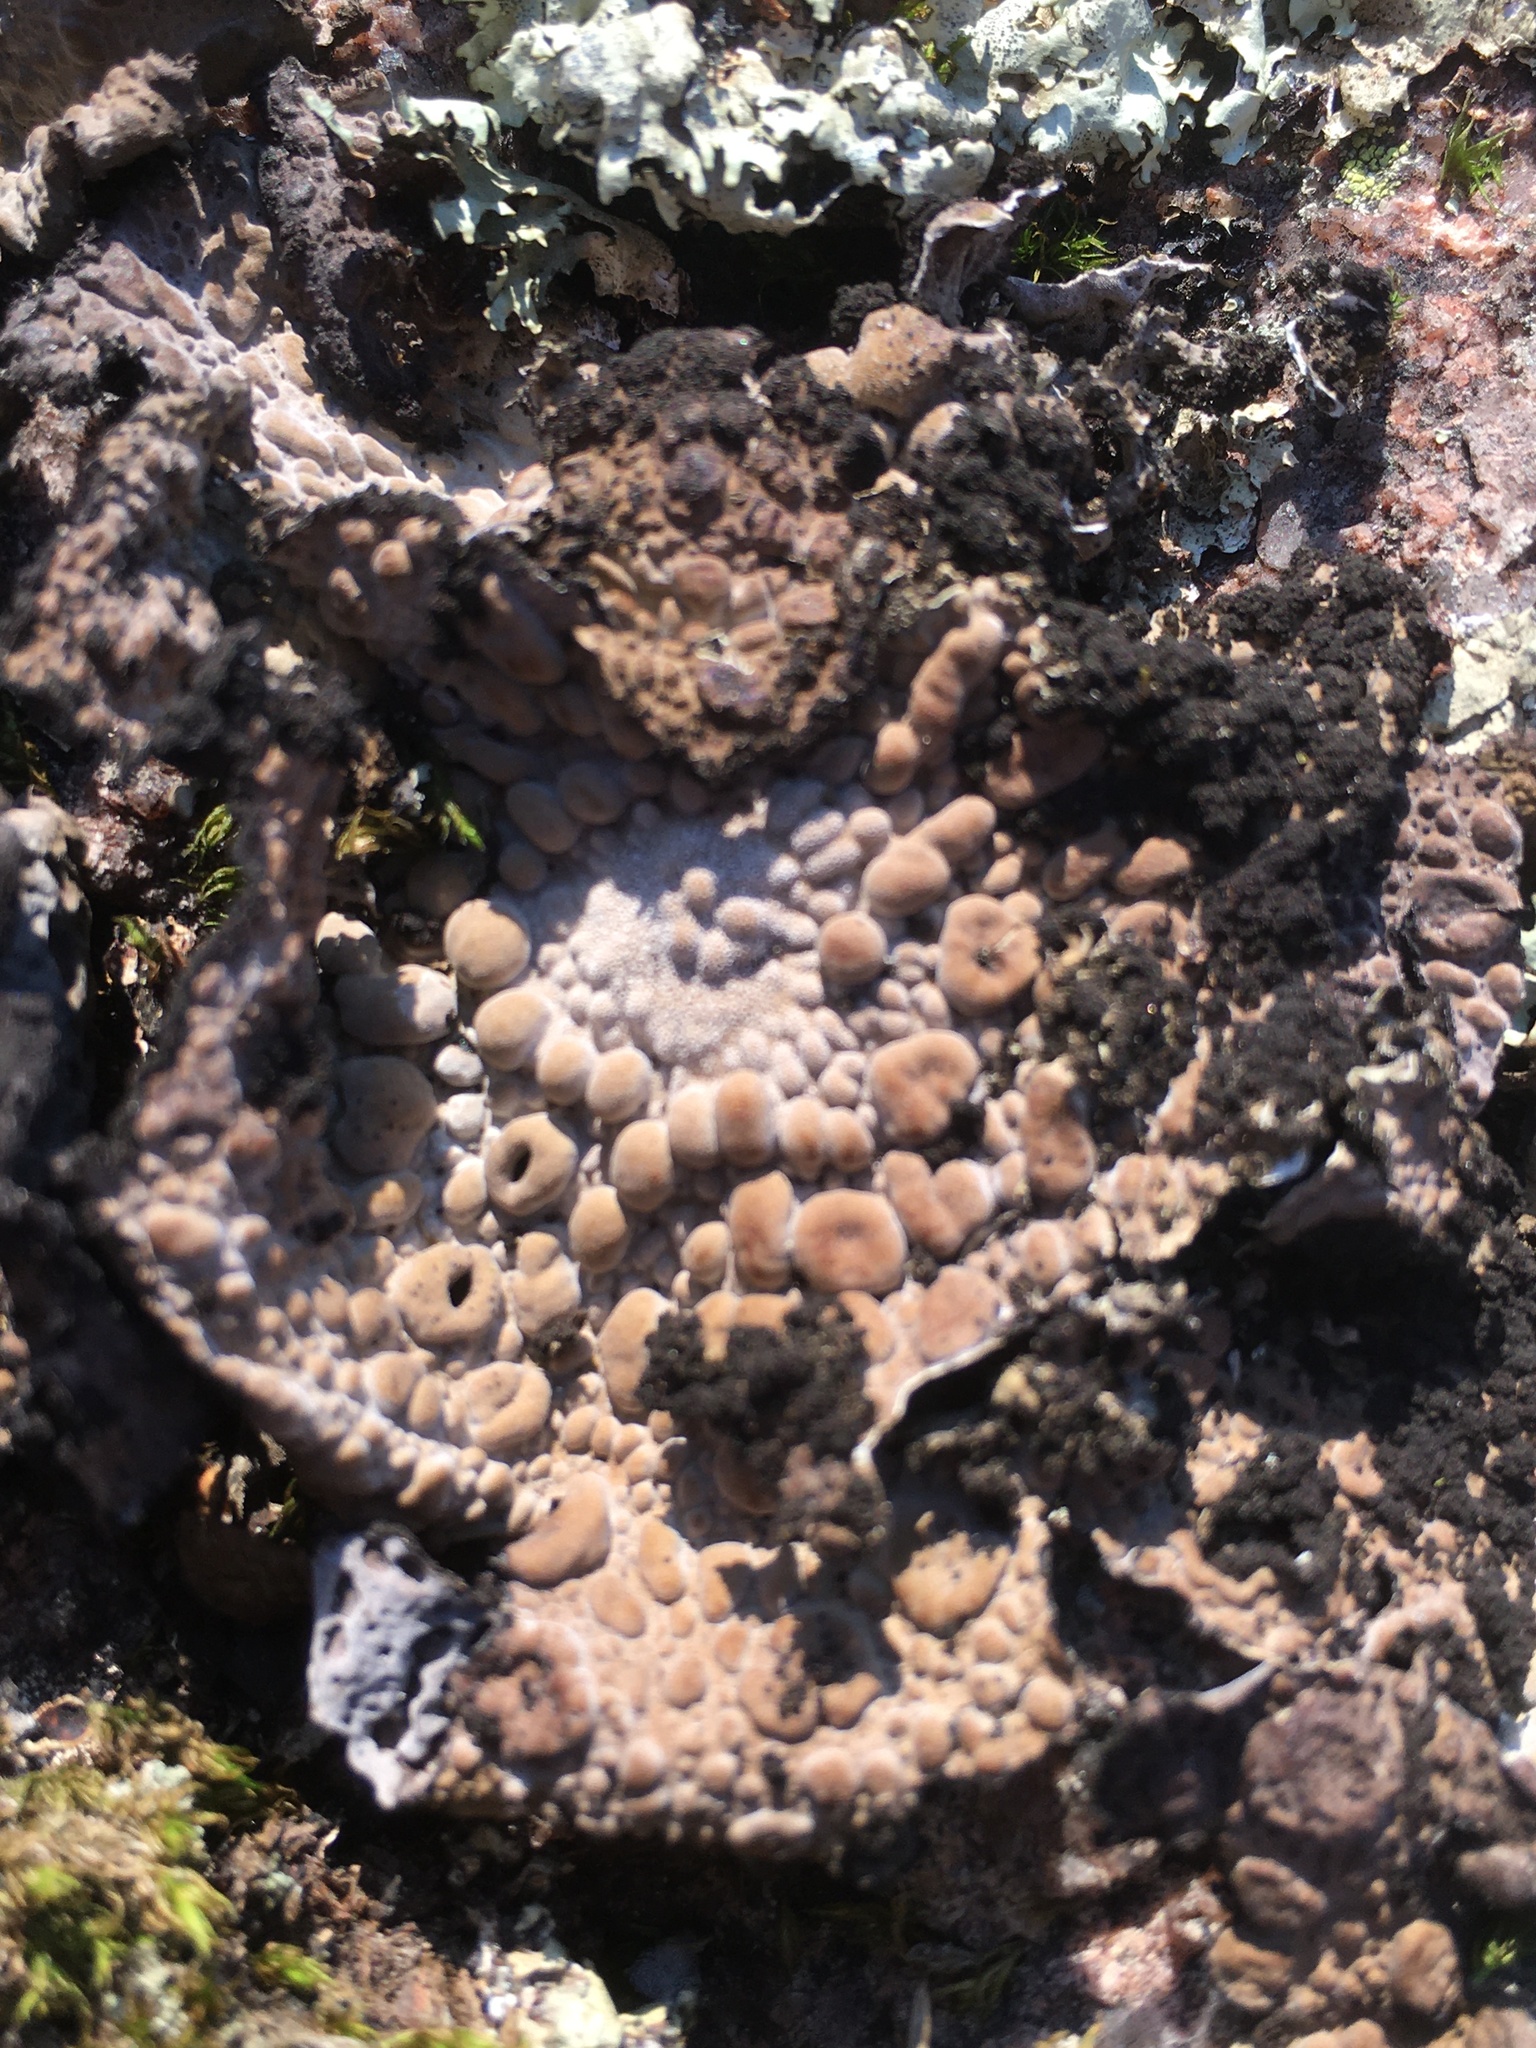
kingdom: Fungi
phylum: Ascomycota
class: Lecanoromycetes
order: Umbilicariales
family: Umbilicariaceae
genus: Lasallia
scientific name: Lasallia pustulata
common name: Blistered toadskin lichen
